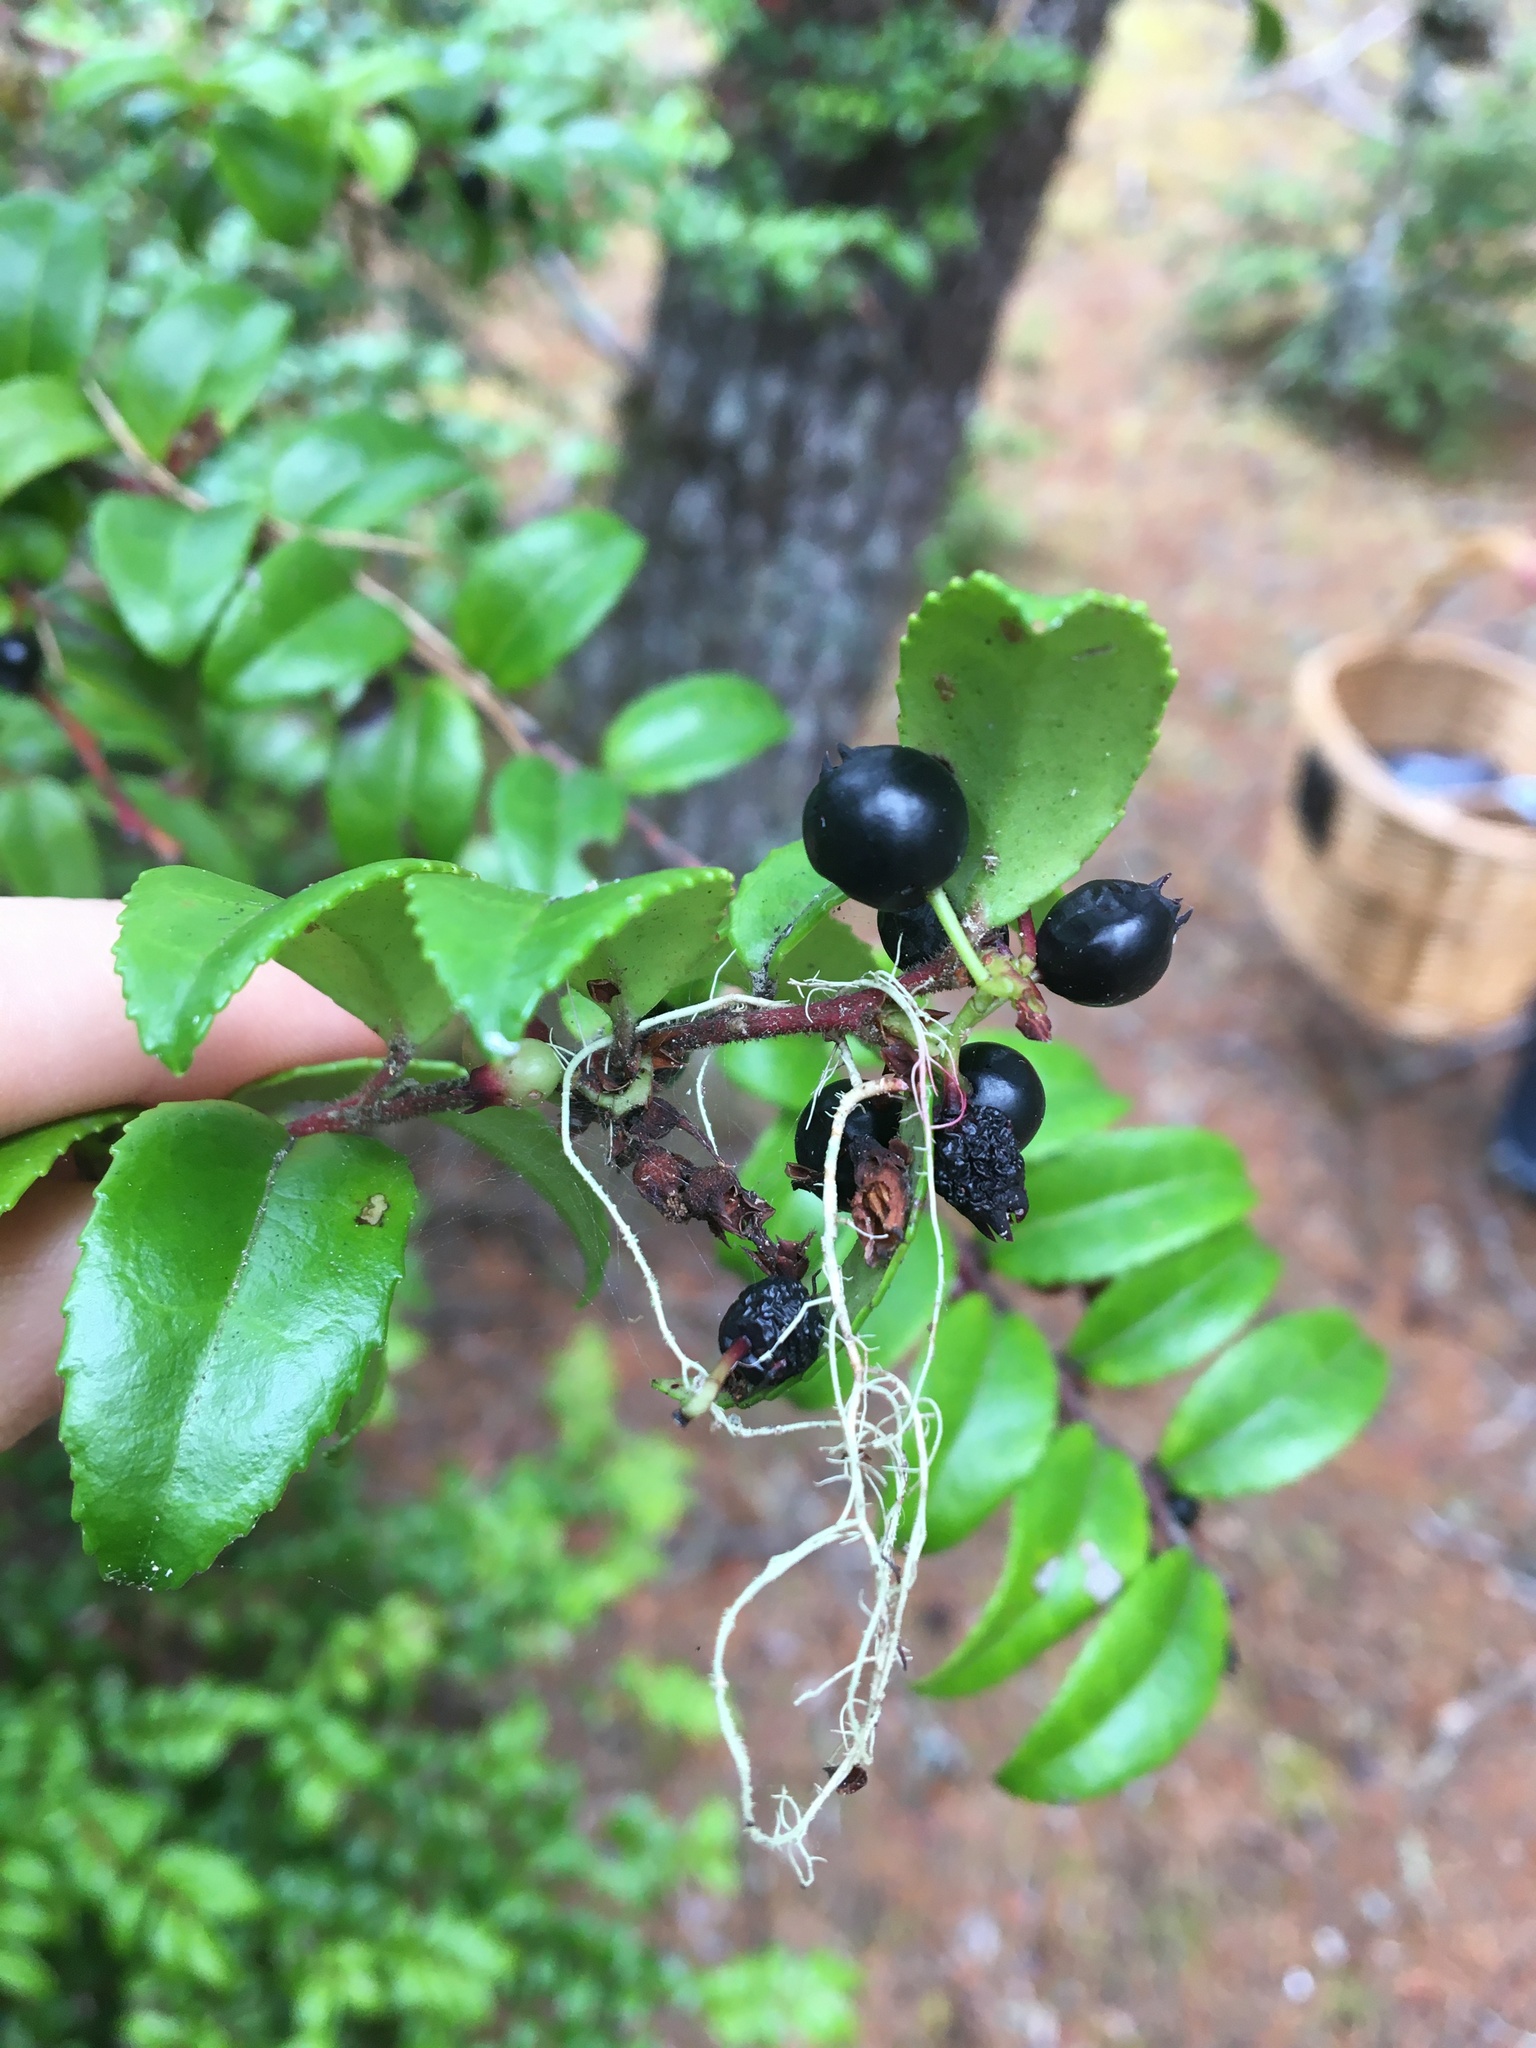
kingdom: Plantae
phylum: Tracheophyta
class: Magnoliopsida
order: Ericales
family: Ericaceae
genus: Vaccinium
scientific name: Vaccinium ovatum
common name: California-huckleberry
